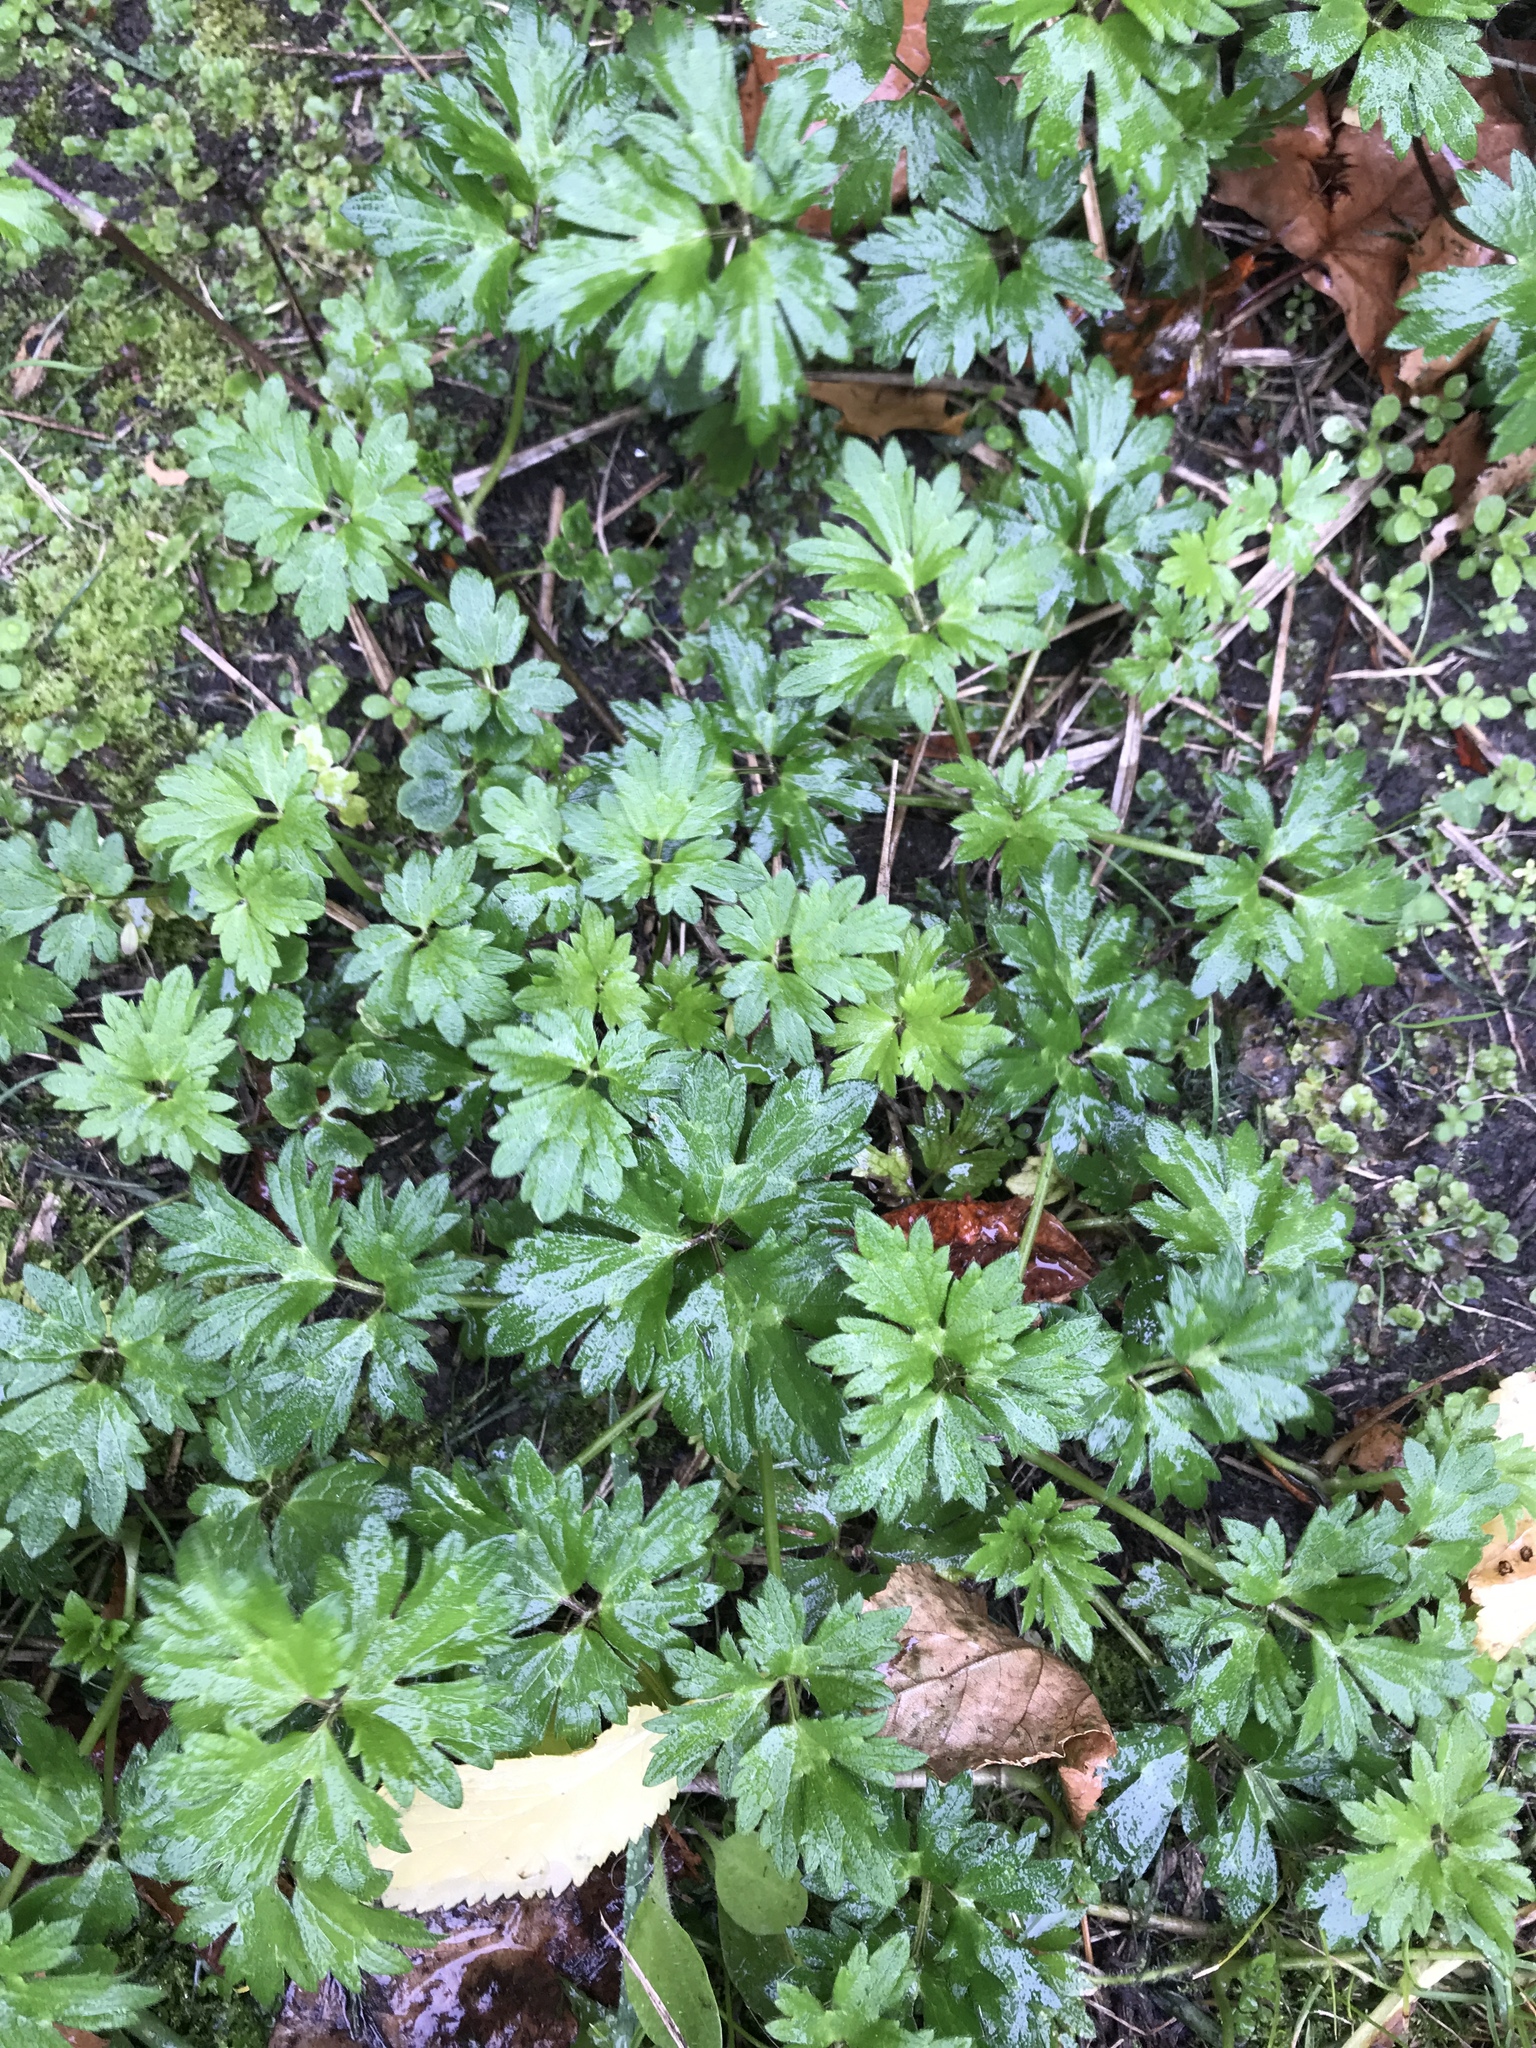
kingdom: Plantae
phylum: Tracheophyta
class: Magnoliopsida
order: Ranunculales
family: Ranunculaceae
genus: Ranunculus
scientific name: Ranunculus repens
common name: Creeping buttercup
